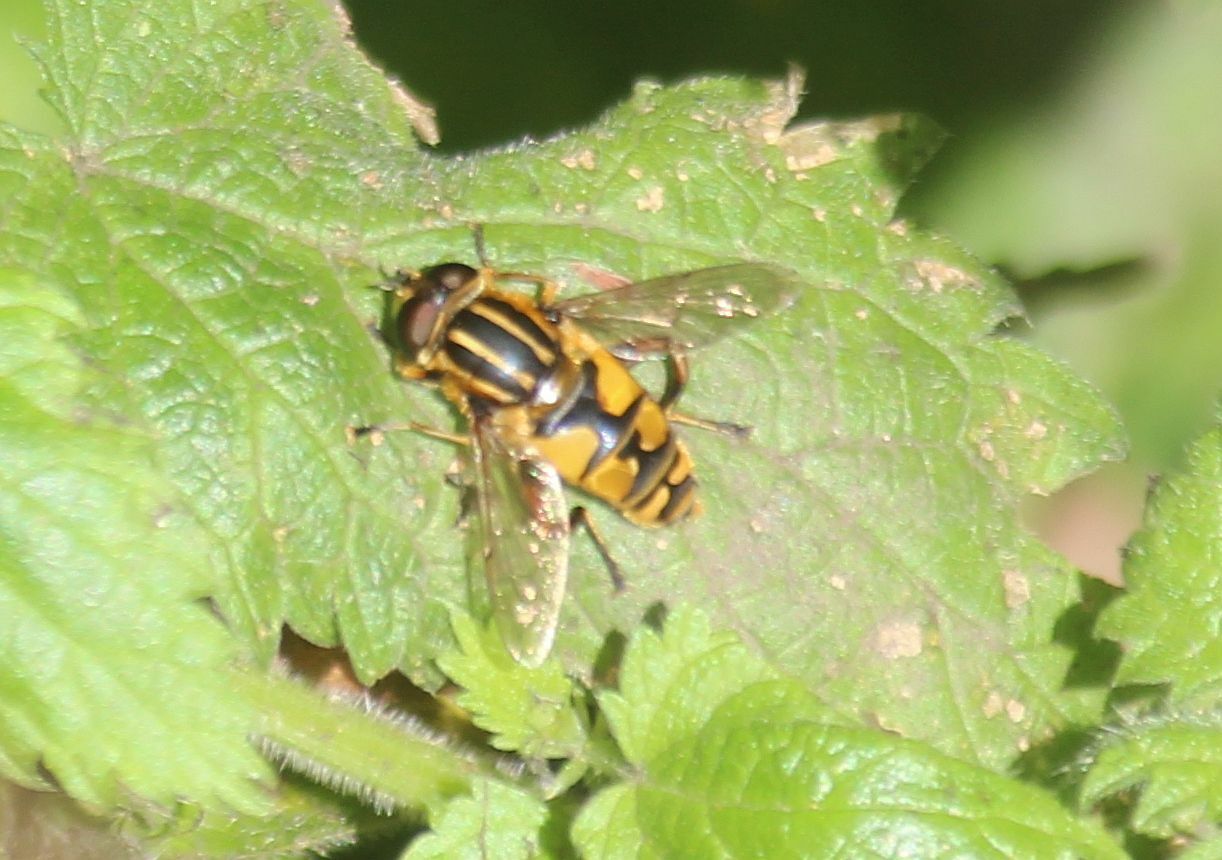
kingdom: Animalia
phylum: Arthropoda
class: Insecta
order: Diptera
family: Syrphidae
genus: Helophilus
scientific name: Helophilus pendulus
